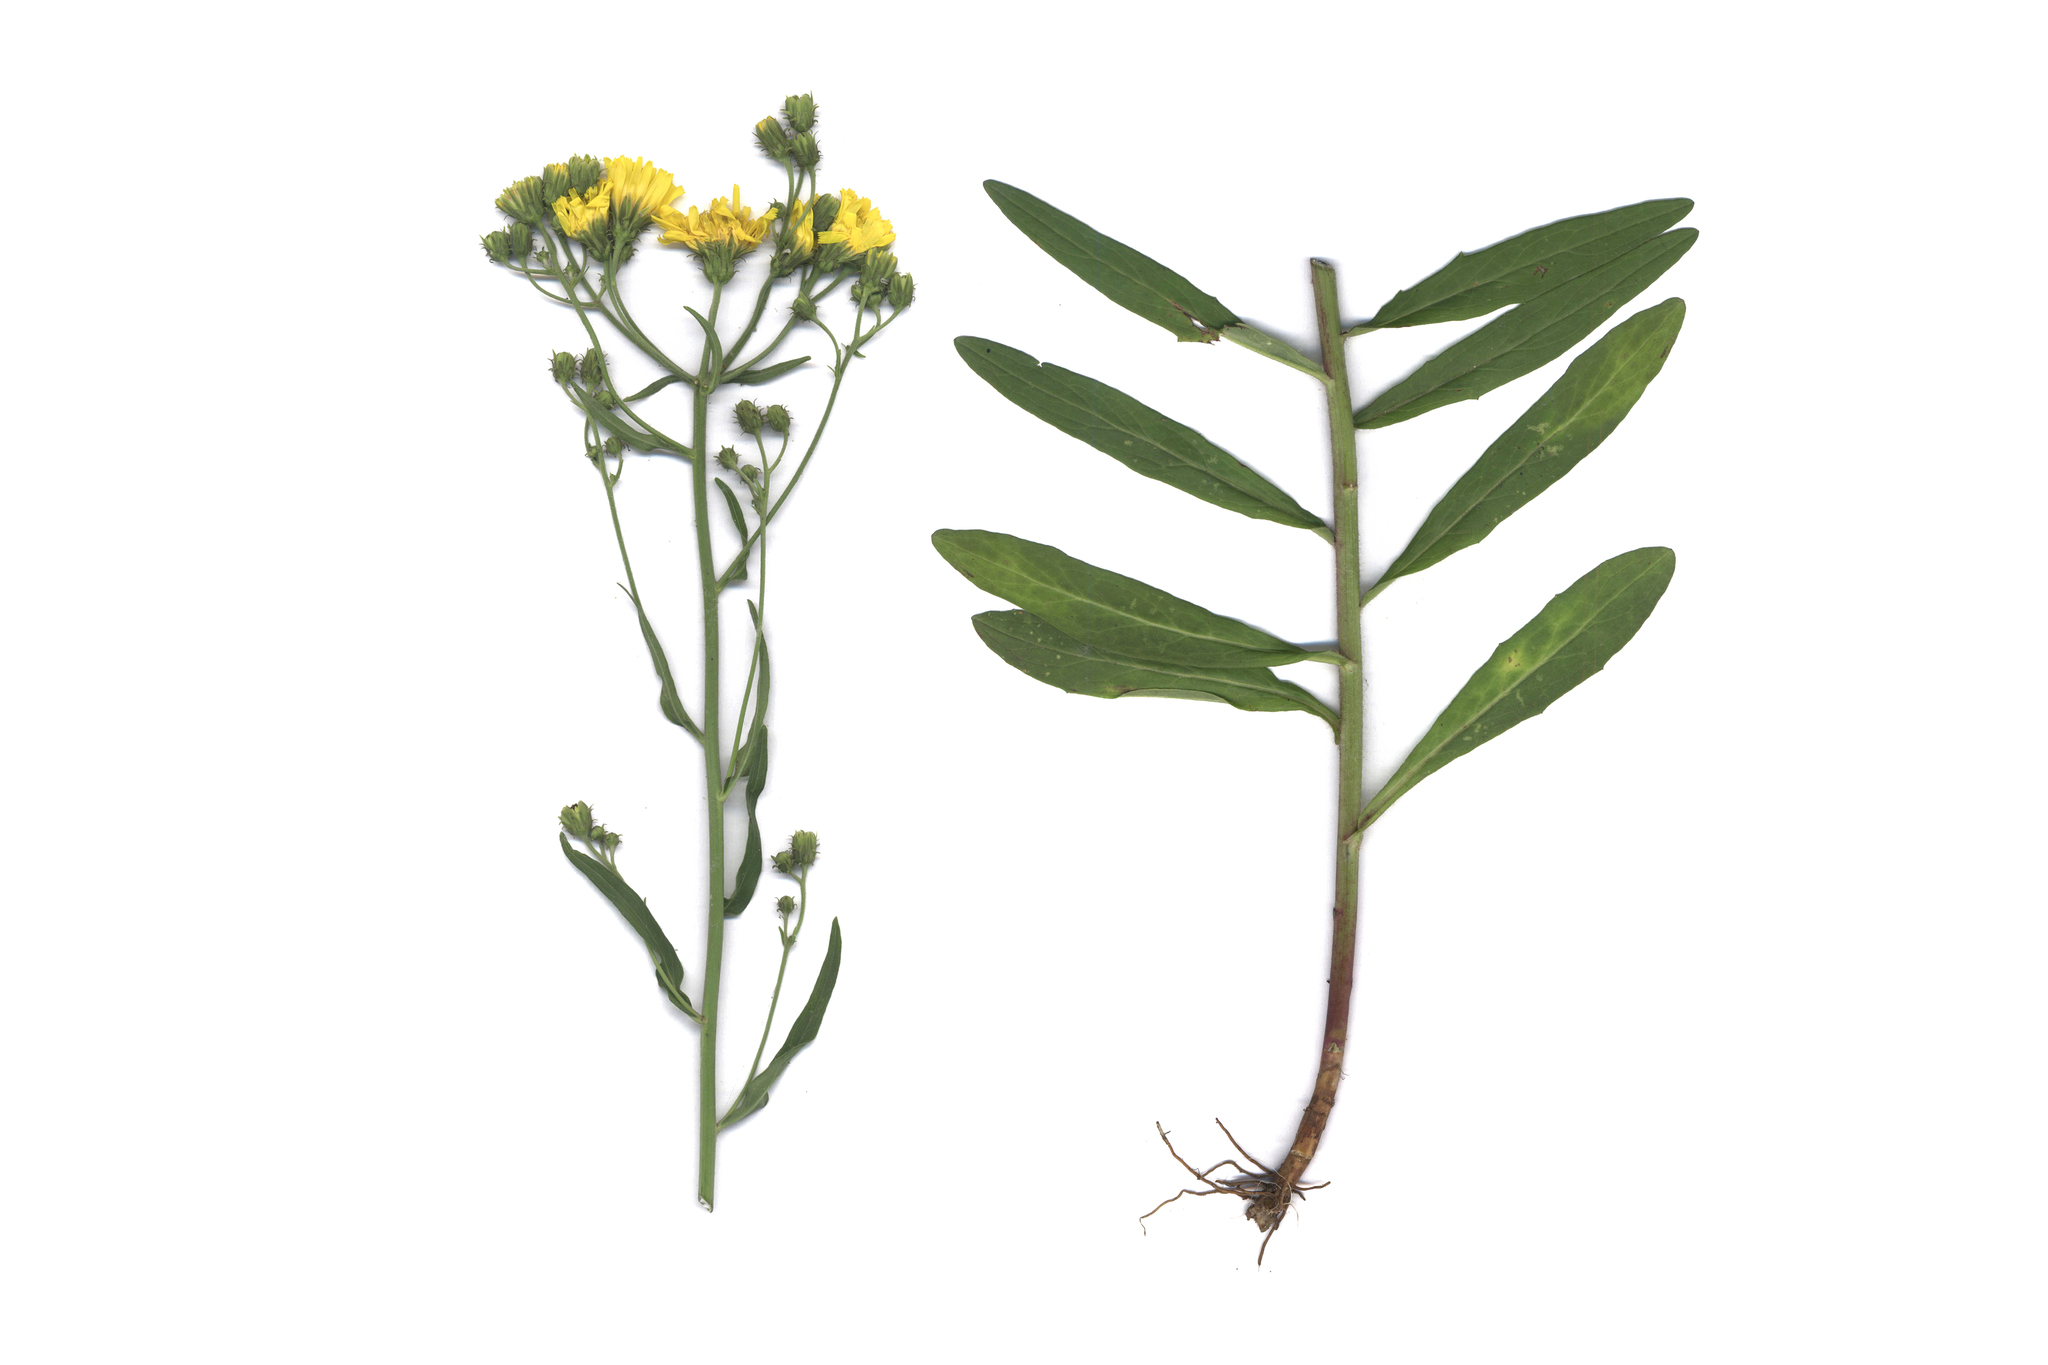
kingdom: Plantae
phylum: Tracheophyta
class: Magnoliopsida
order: Asterales
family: Asteraceae
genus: Hieracium
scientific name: Hieracium umbellatum
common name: Northern hawkweed
